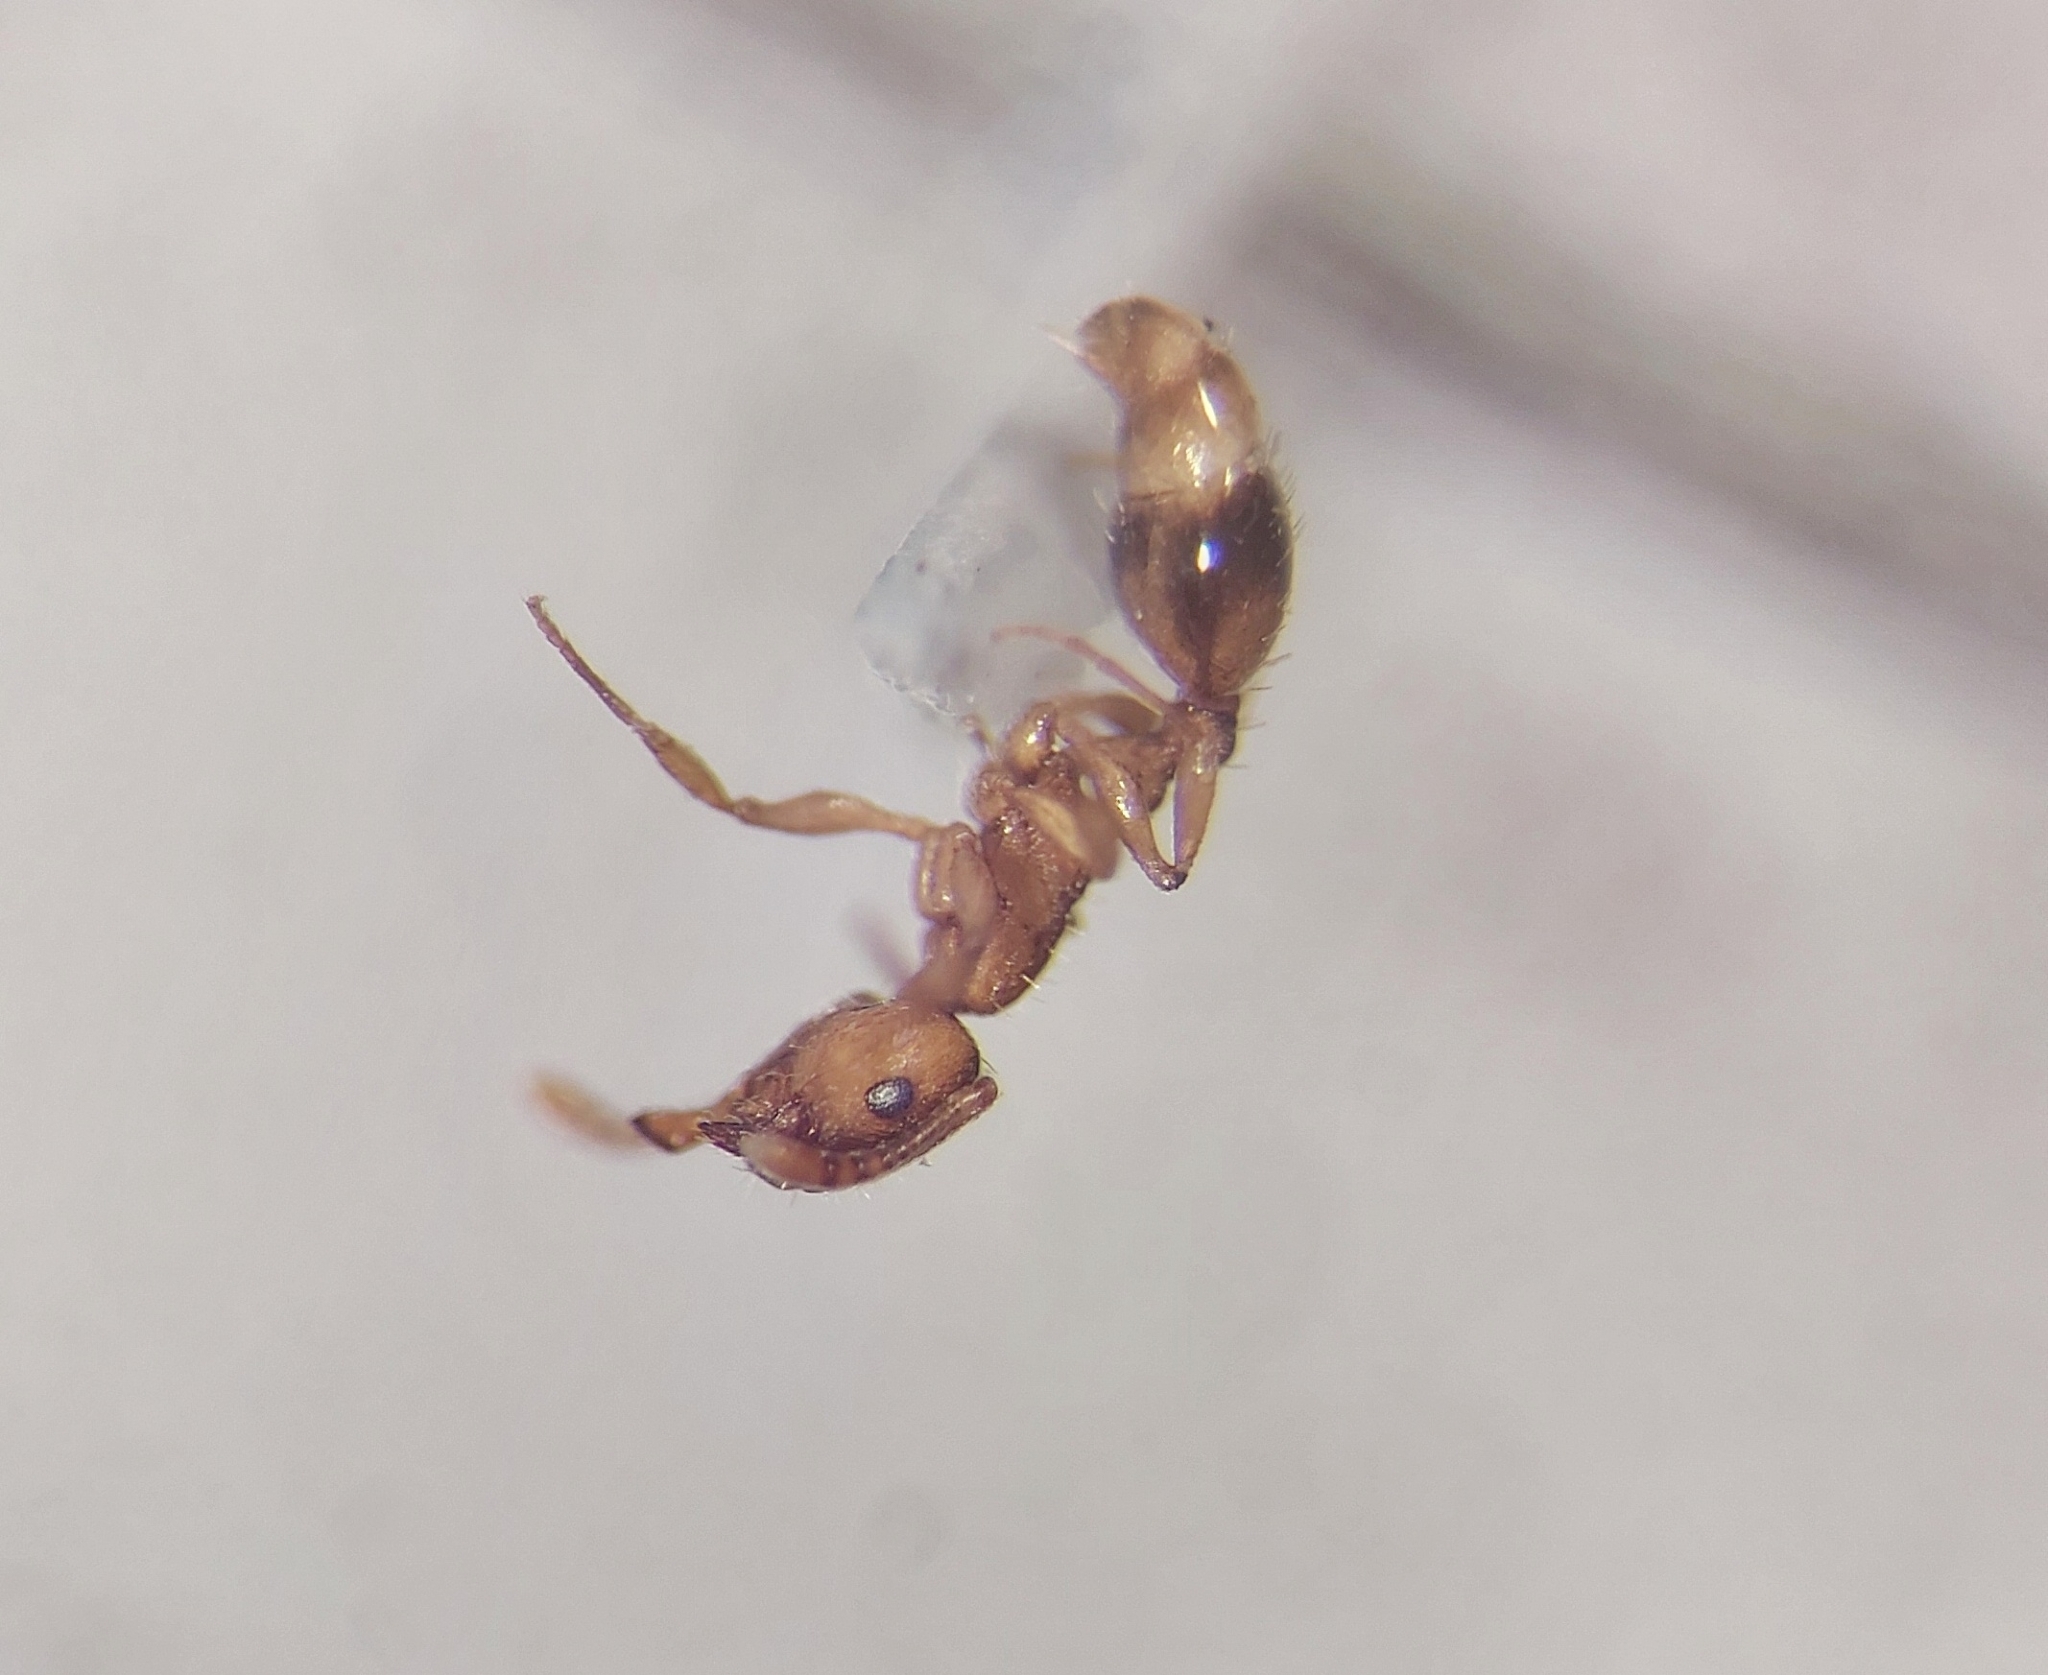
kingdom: Animalia
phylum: Arthropoda
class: Insecta
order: Hymenoptera
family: Formicidae
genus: Temnothorax
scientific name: Temnothorax crassispinus
